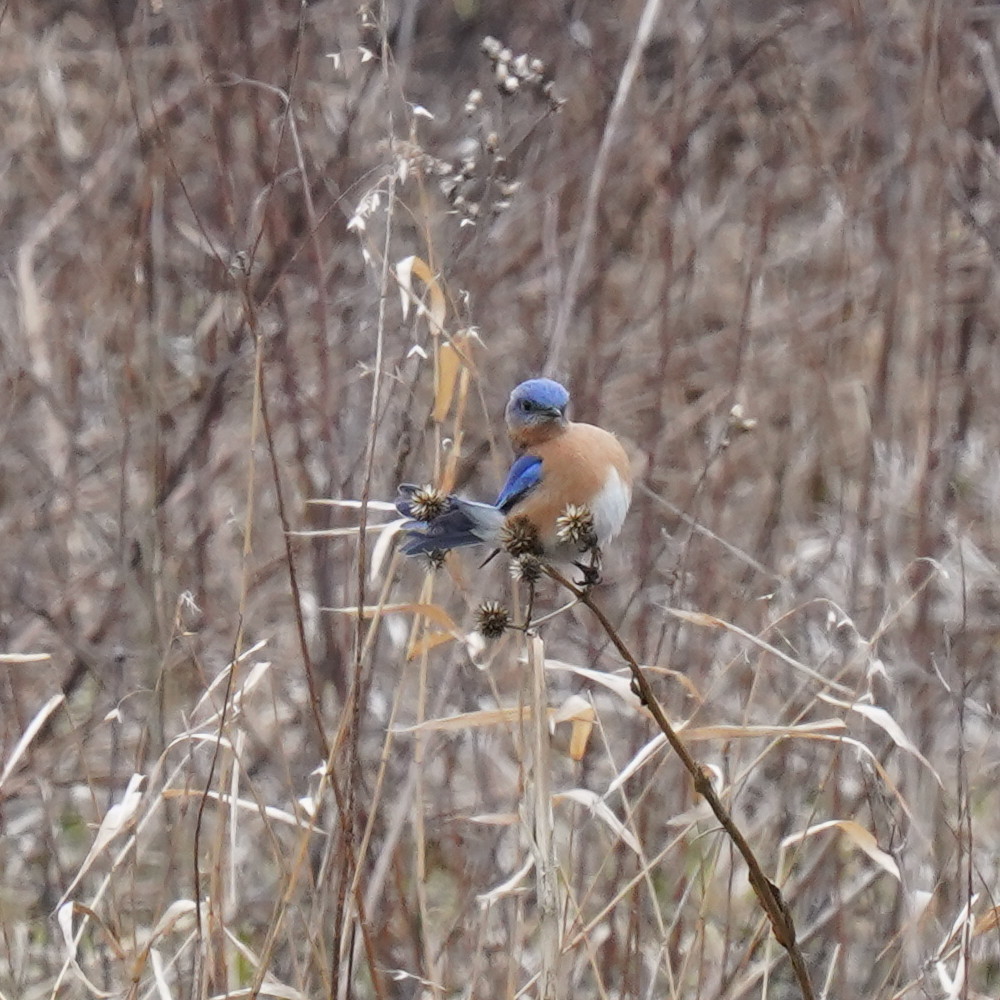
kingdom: Animalia
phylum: Chordata
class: Aves
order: Passeriformes
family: Turdidae
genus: Sialia
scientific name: Sialia sialis
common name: Eastern bluebird
